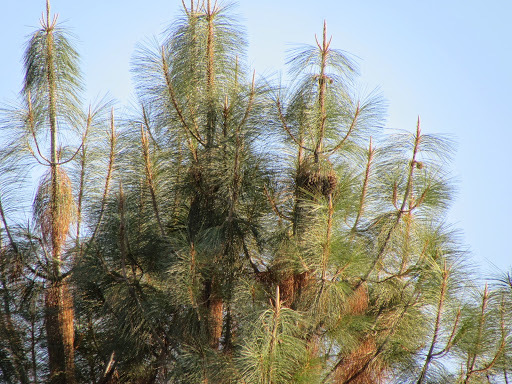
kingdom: Plantae
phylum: Tracheophyta
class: Pinopsida
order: Pinales
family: Pinaceae
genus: Pinus
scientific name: Pinus sabiniana
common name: Bull pine
